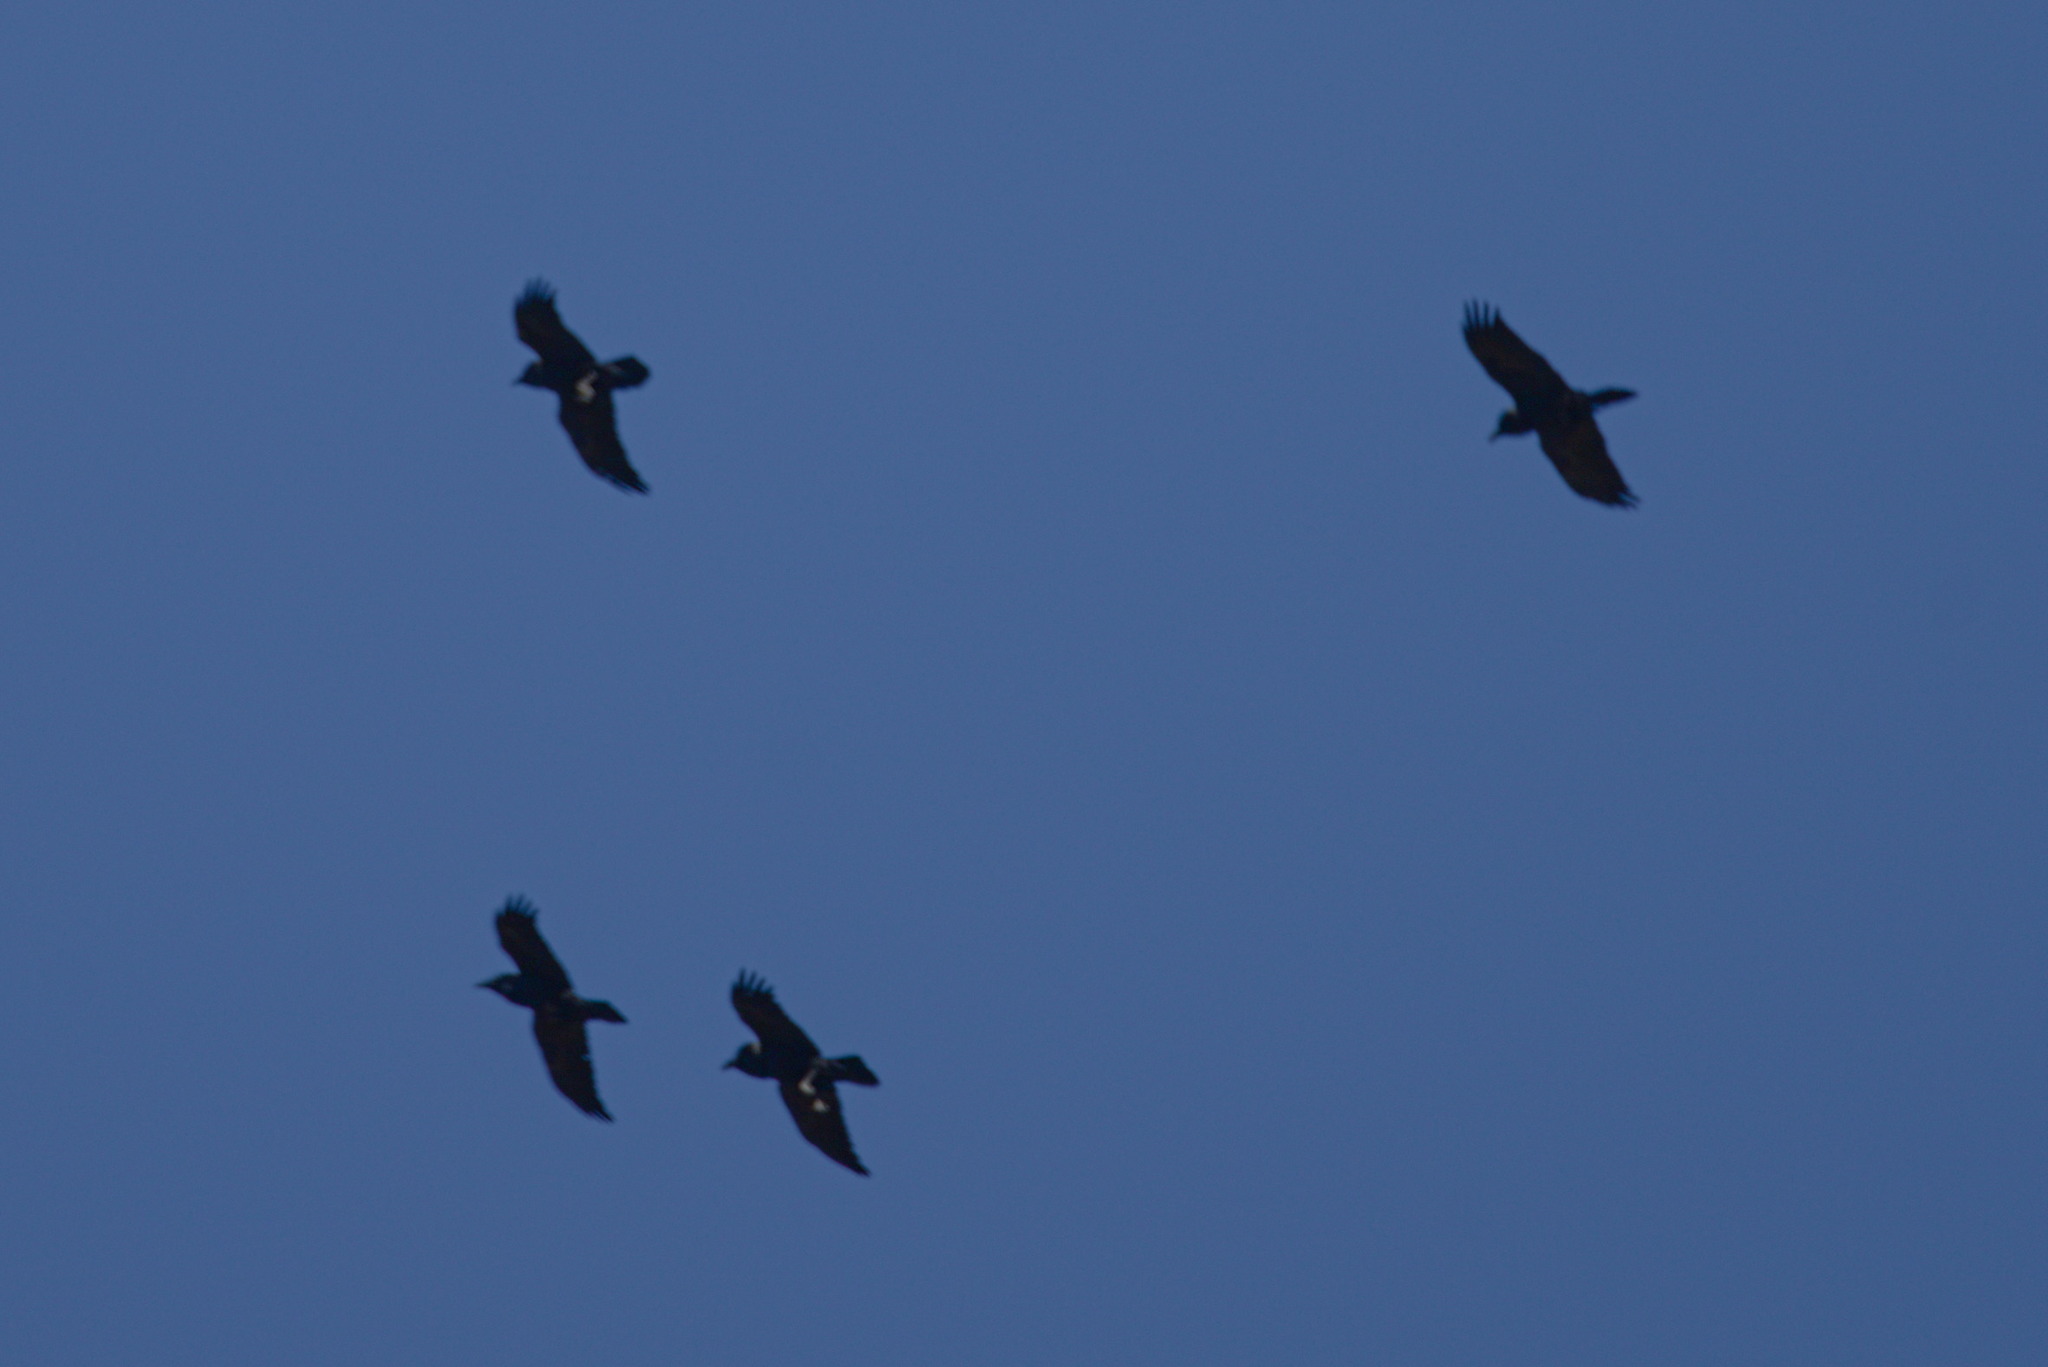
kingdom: Animalia
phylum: Chordata
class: Aves
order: Passeriformes
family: Corvidae
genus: Corvus
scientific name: Corvus corax
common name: Common raven
